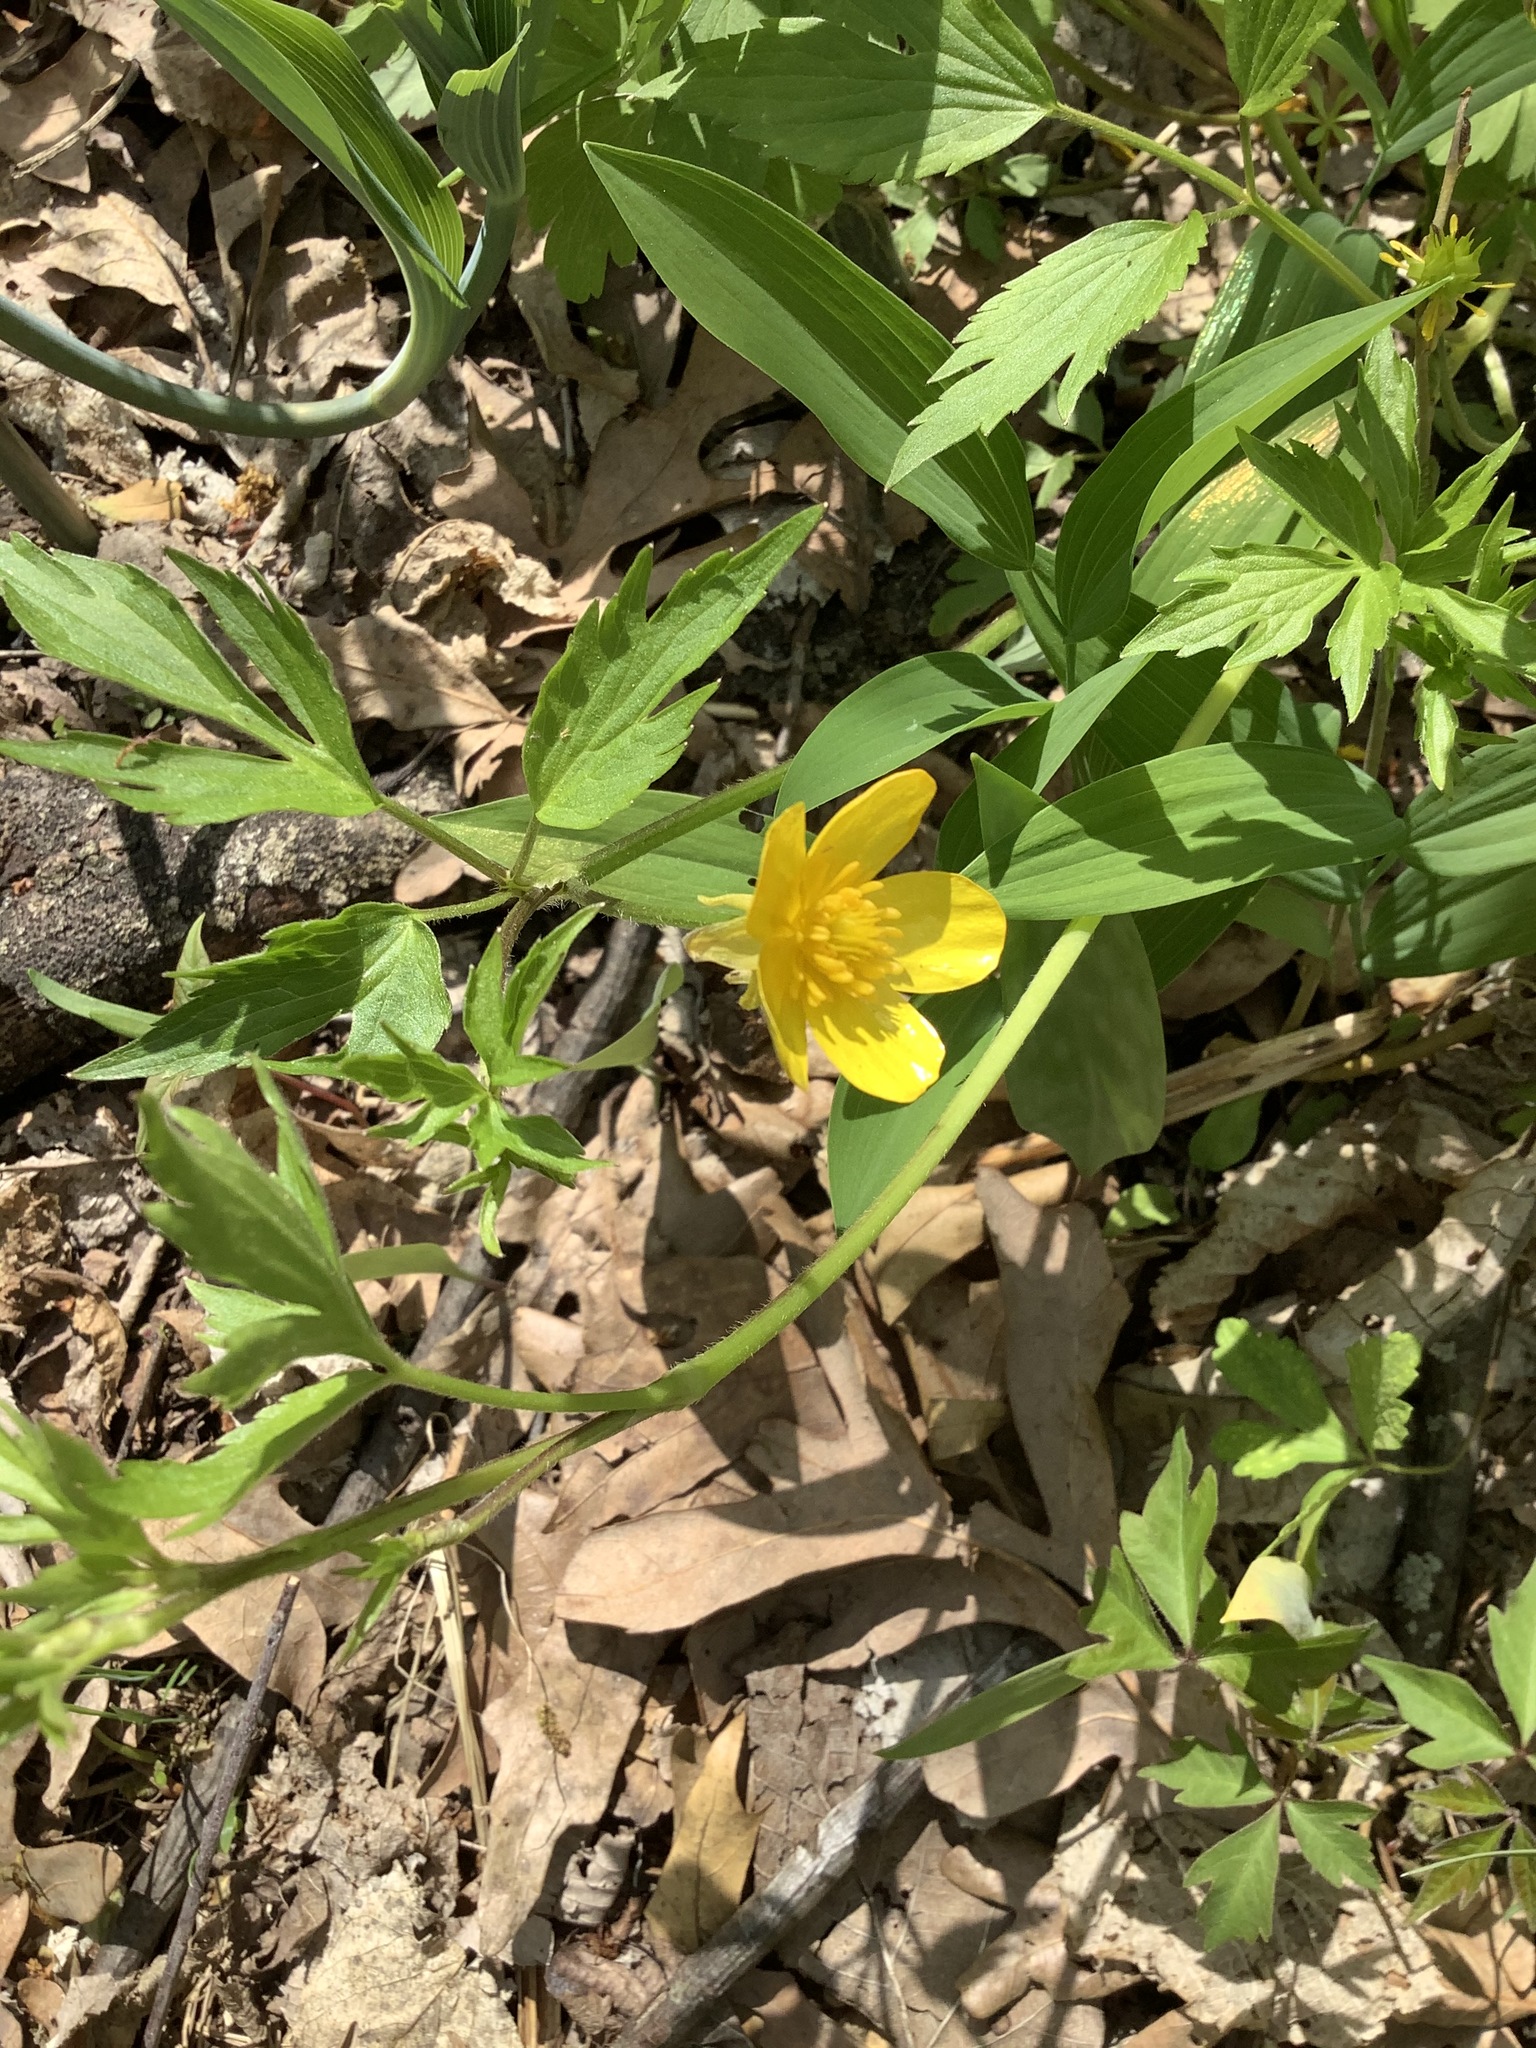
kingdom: Plantae
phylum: Tracheophyta
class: Magnoliopsida
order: Ranunculales
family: Ranunculaceae
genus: Ranunculus
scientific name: Ranunculus hispidus
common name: Bristly buttercup
